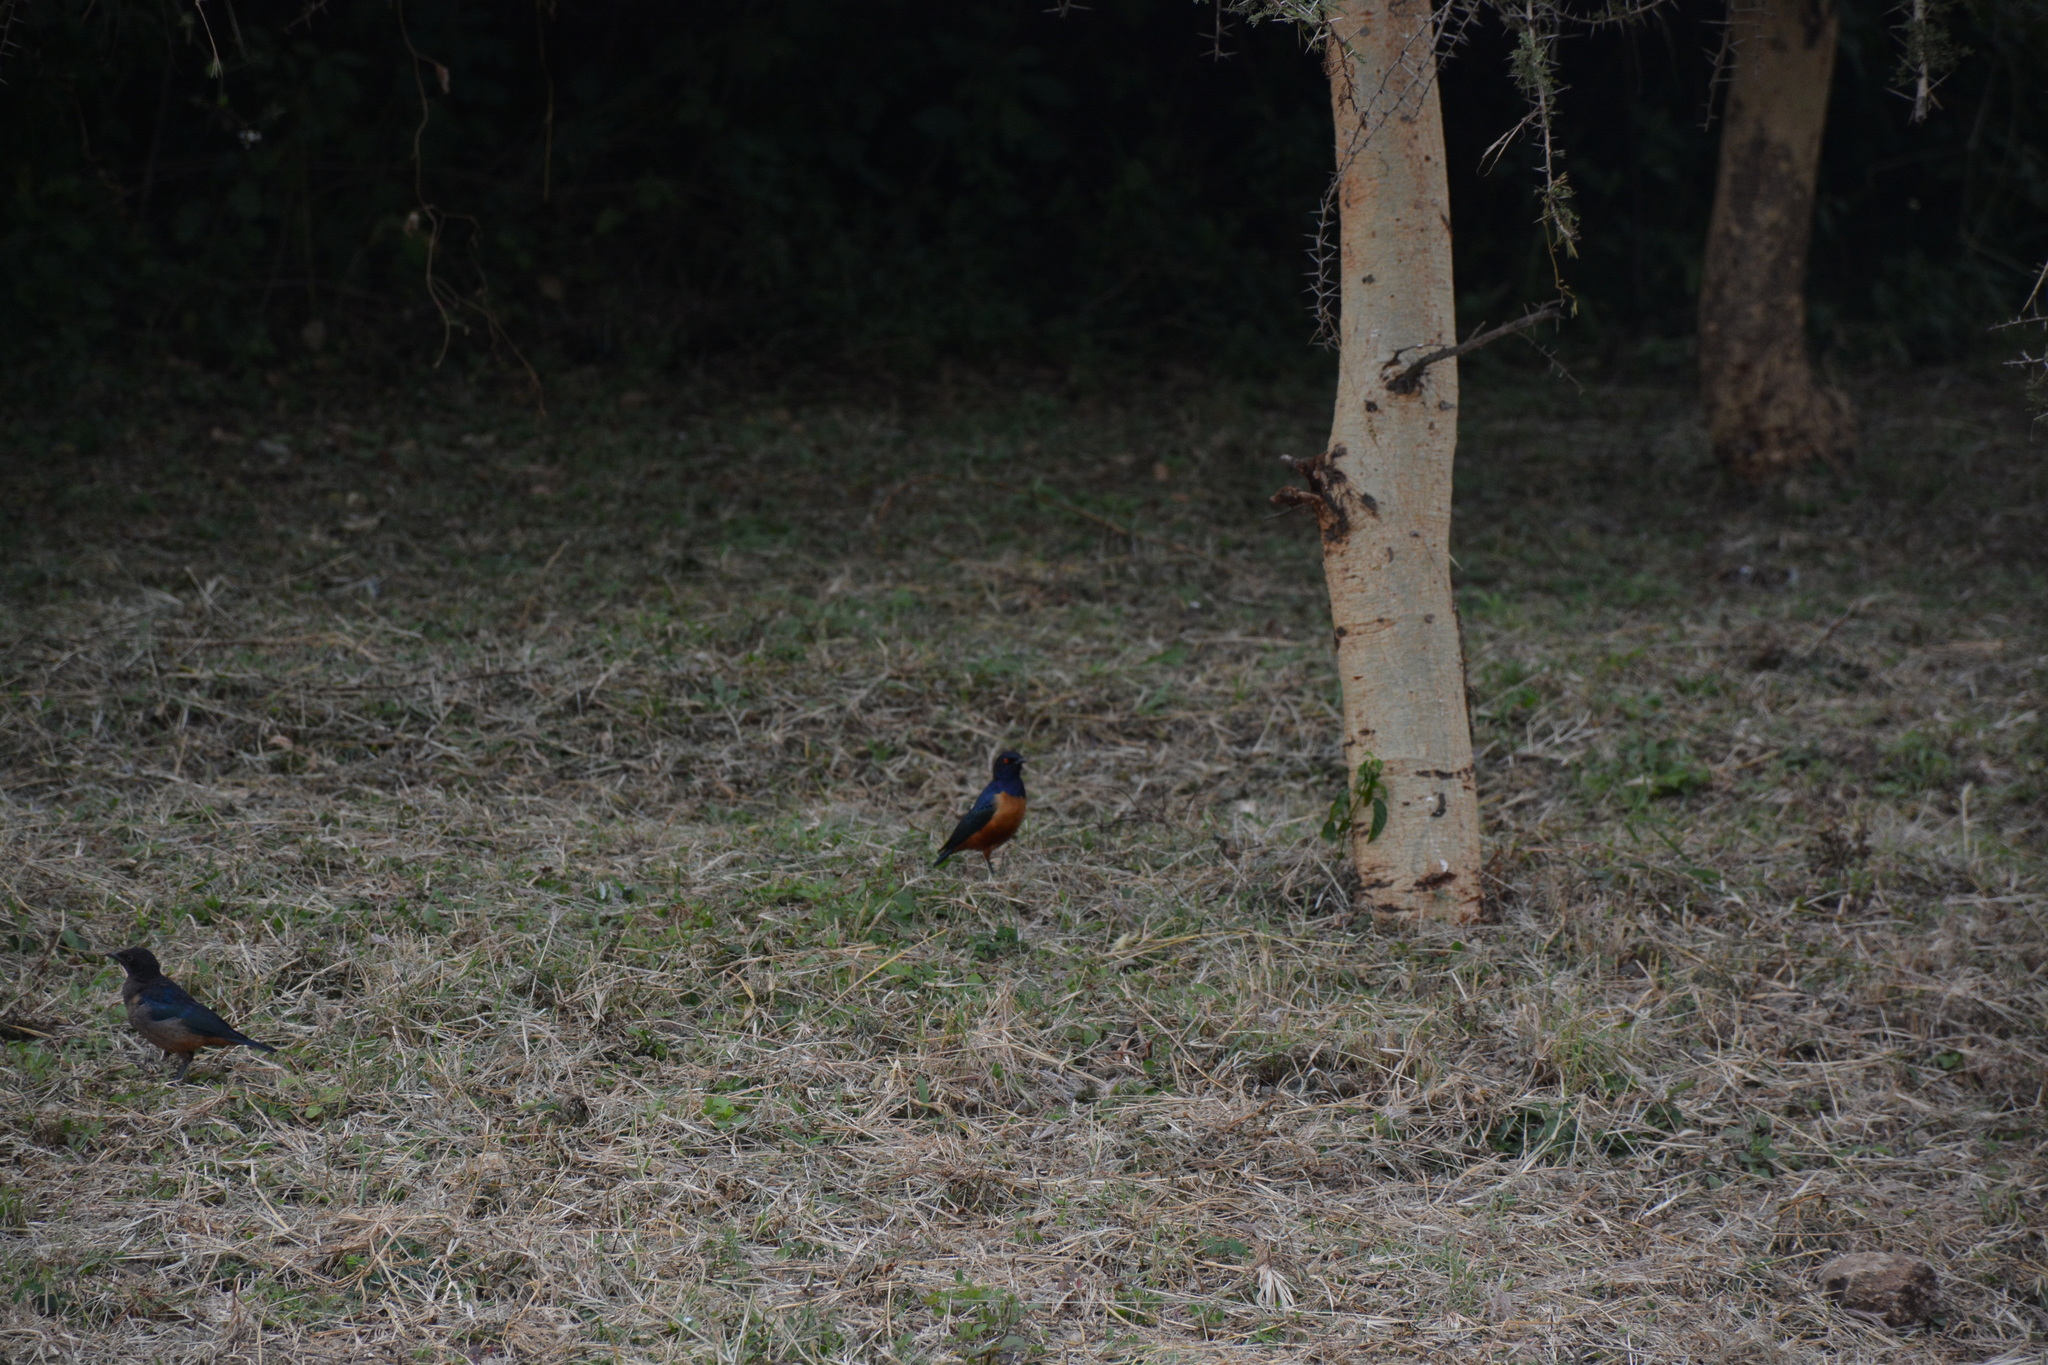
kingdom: Animalia
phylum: Chordata
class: Aves
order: Passeriformes
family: Sturnidae
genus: Lamprotornis
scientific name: Lamprotornis hildebrandti
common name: Hildebrandt's starling
